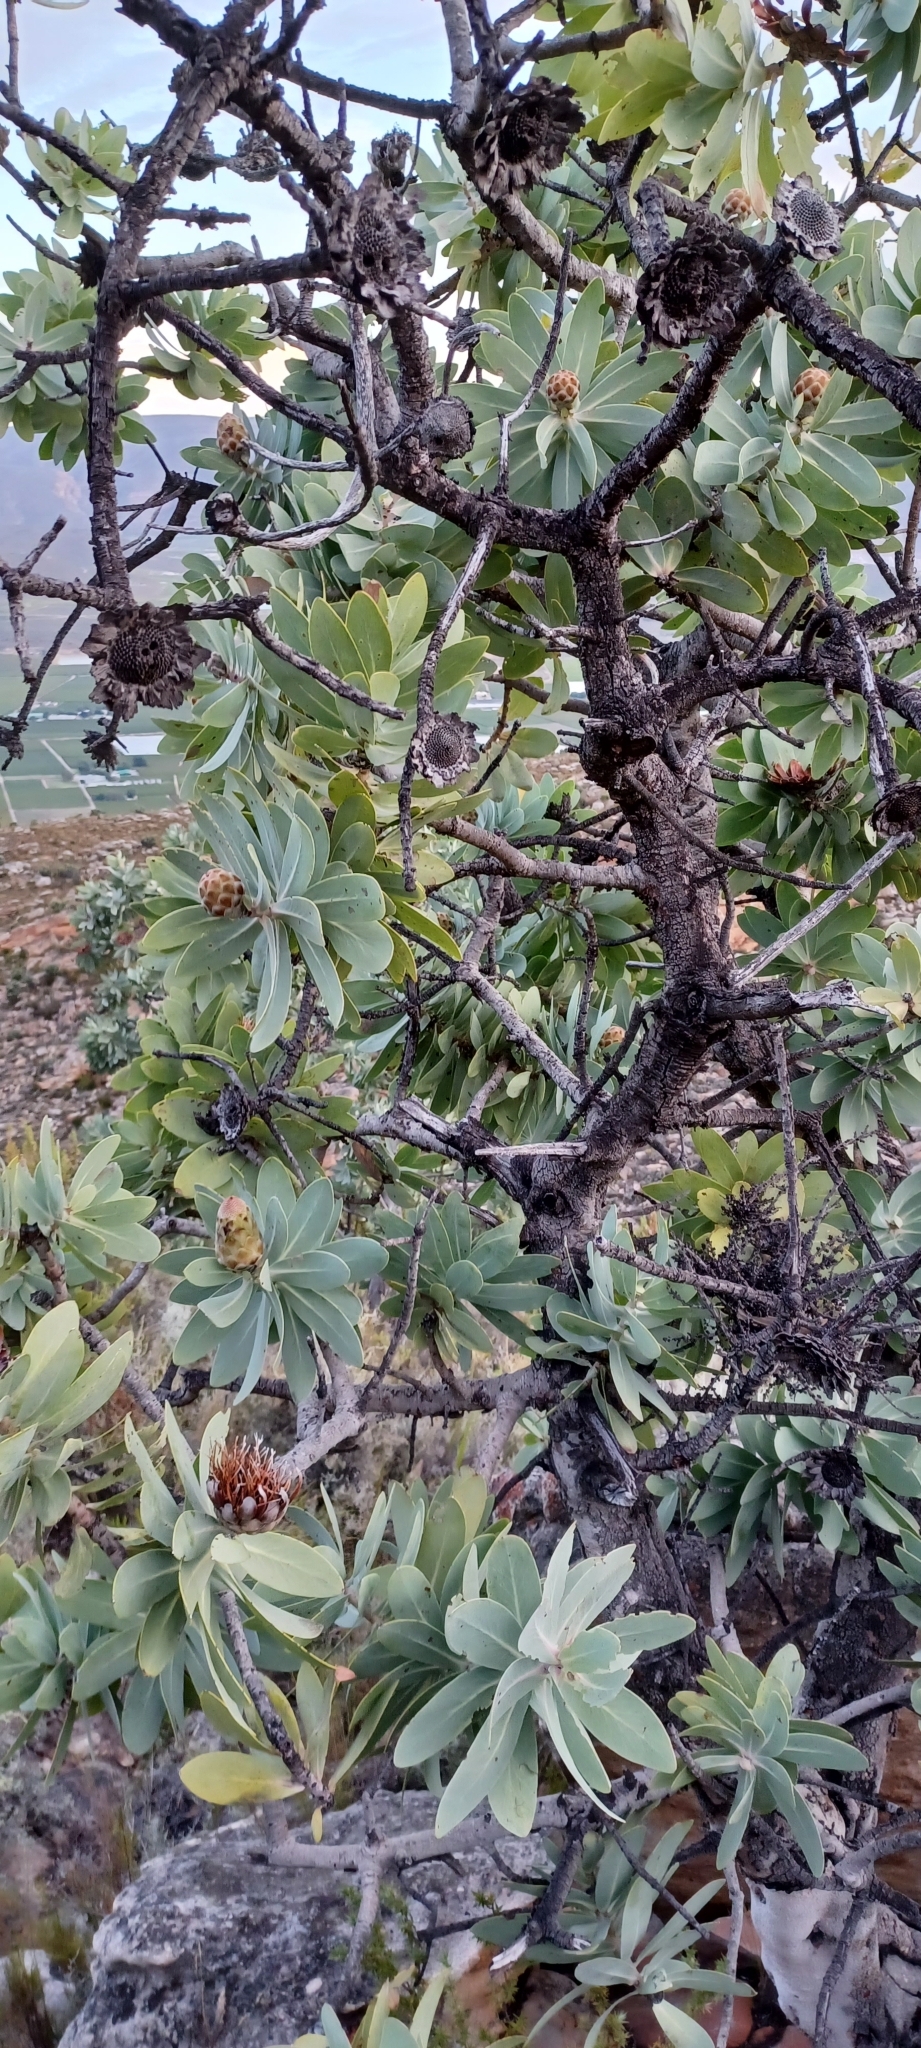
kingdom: Plantae
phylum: Tracheophyta
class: Magnoliopsida
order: Proteales
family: Proteaceae
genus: Protea
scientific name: Protea nitida
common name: Tree protea
